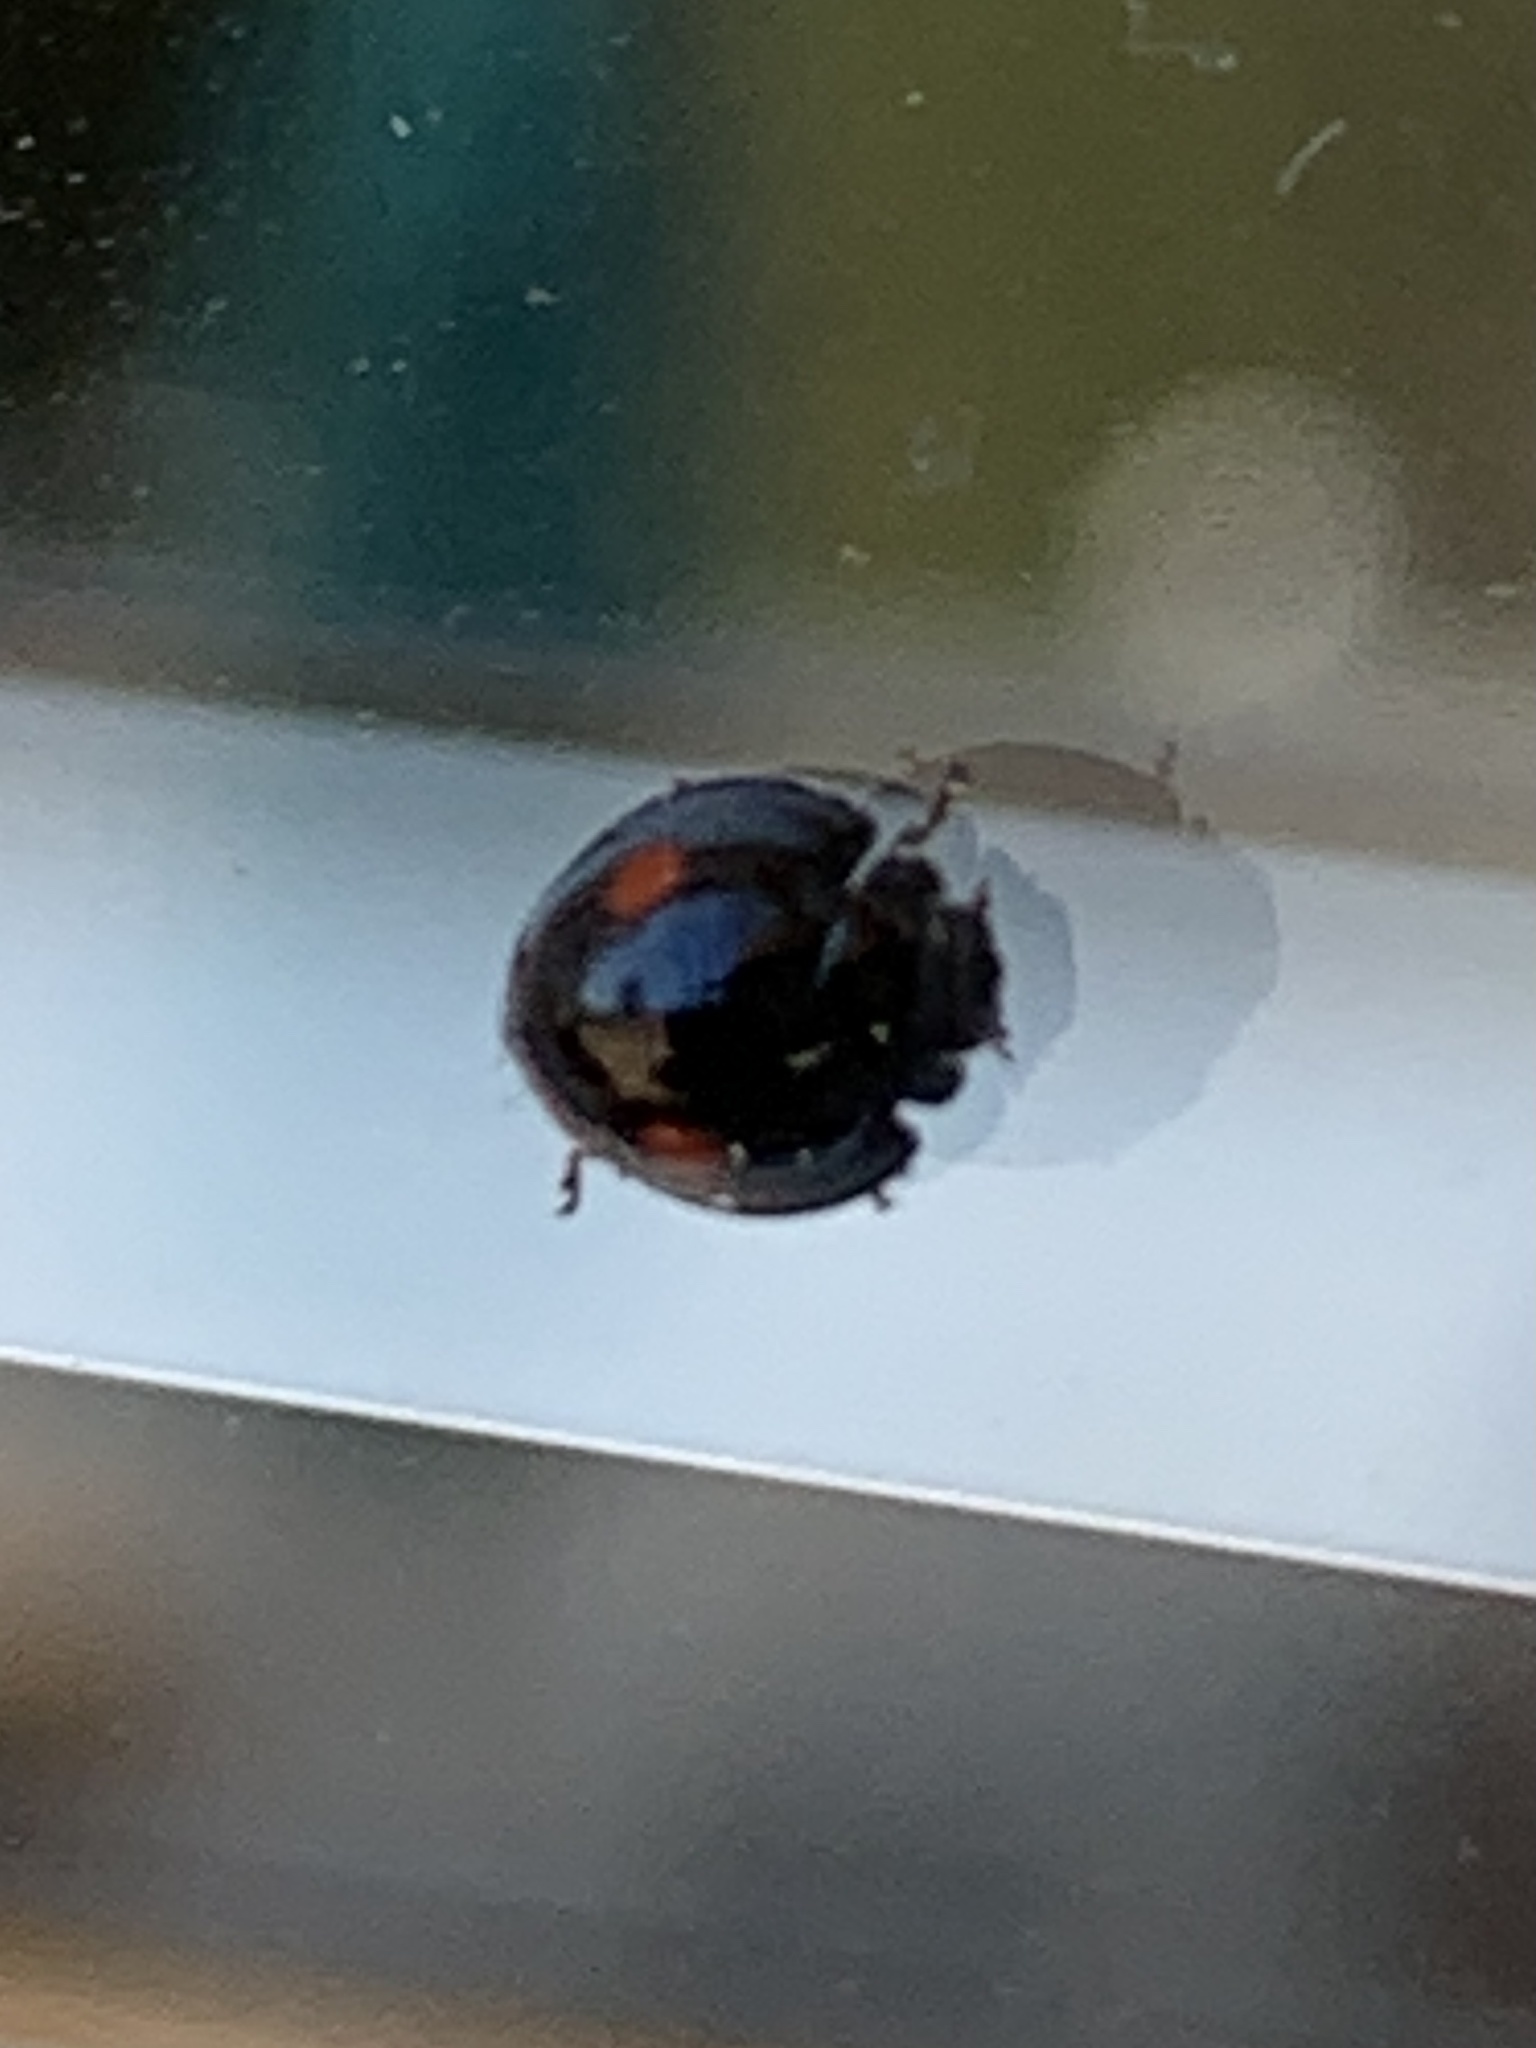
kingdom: Animalia
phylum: Arthropoda
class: Insecta
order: Coleoptera
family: Coccinellidae
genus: Chilocorus
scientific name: Chilocorus stigma
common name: Twicestabbed lady beetle
